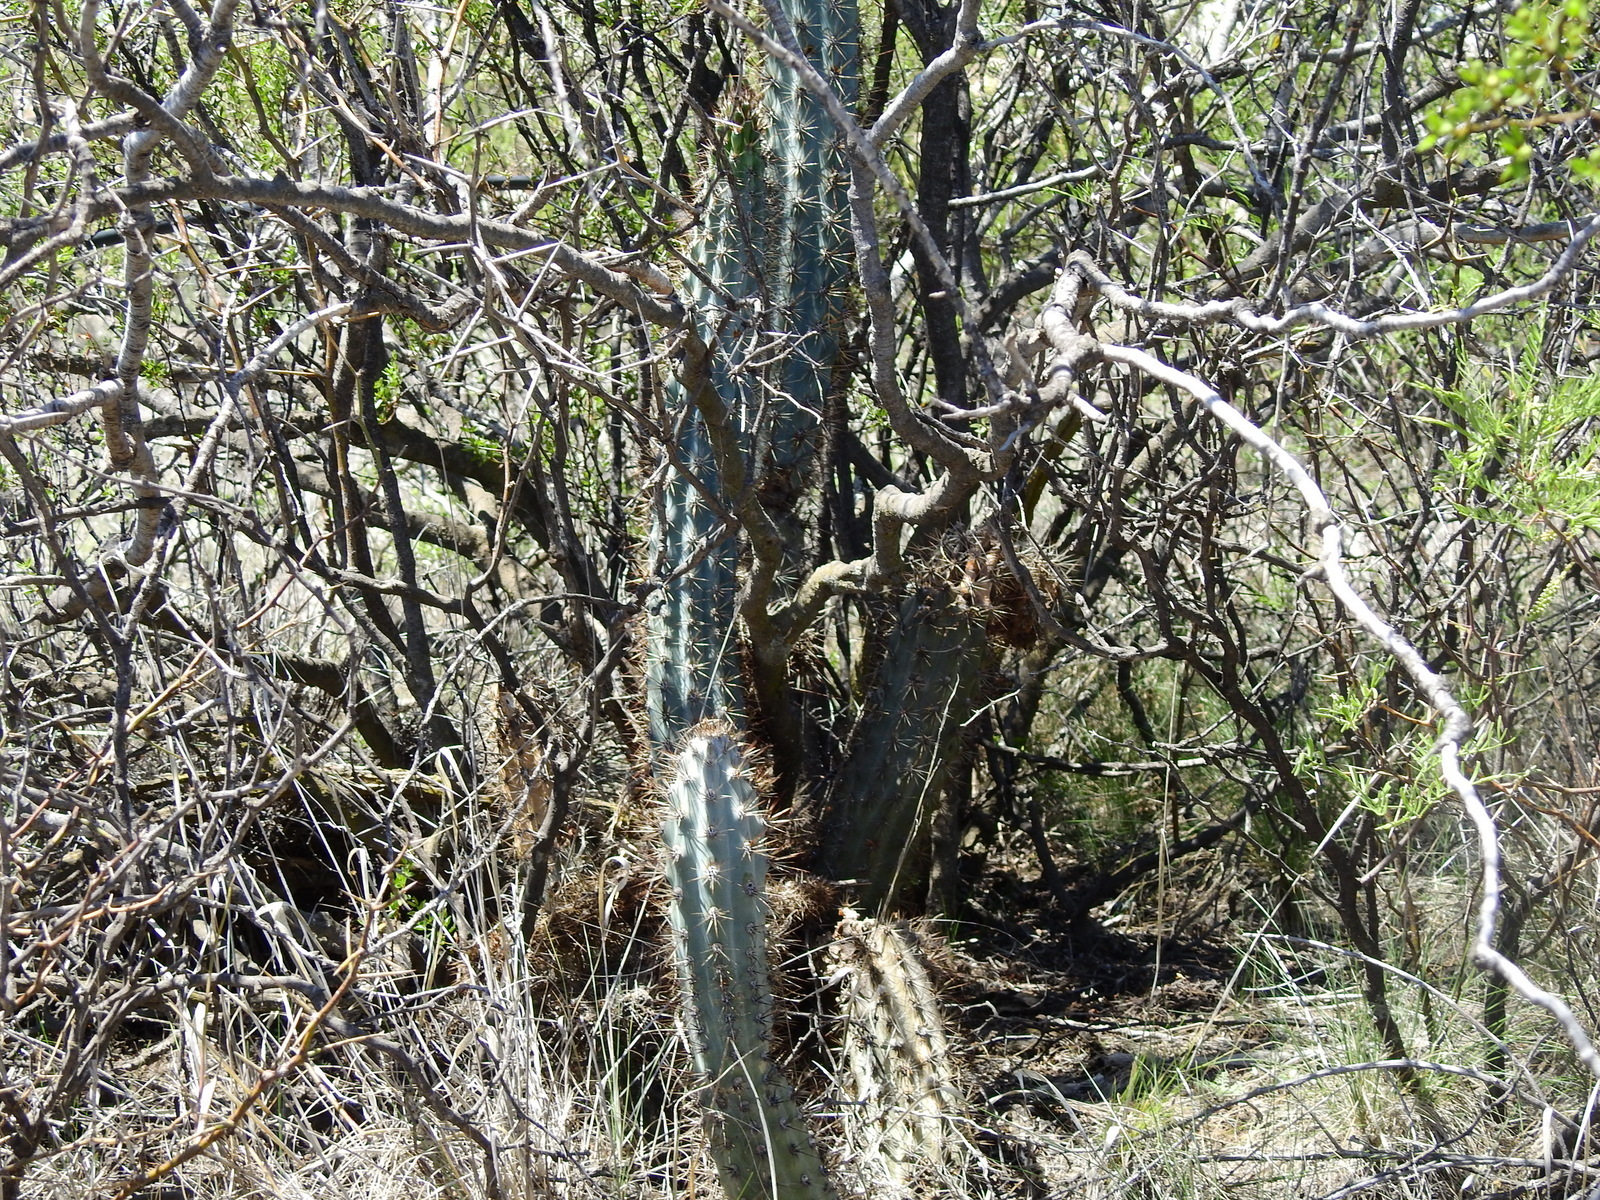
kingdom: Plantae
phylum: Tracheophyta
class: Magnoliopsida
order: Caryophyllales
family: Cactaceae
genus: Cereus
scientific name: Cereus aethiops
